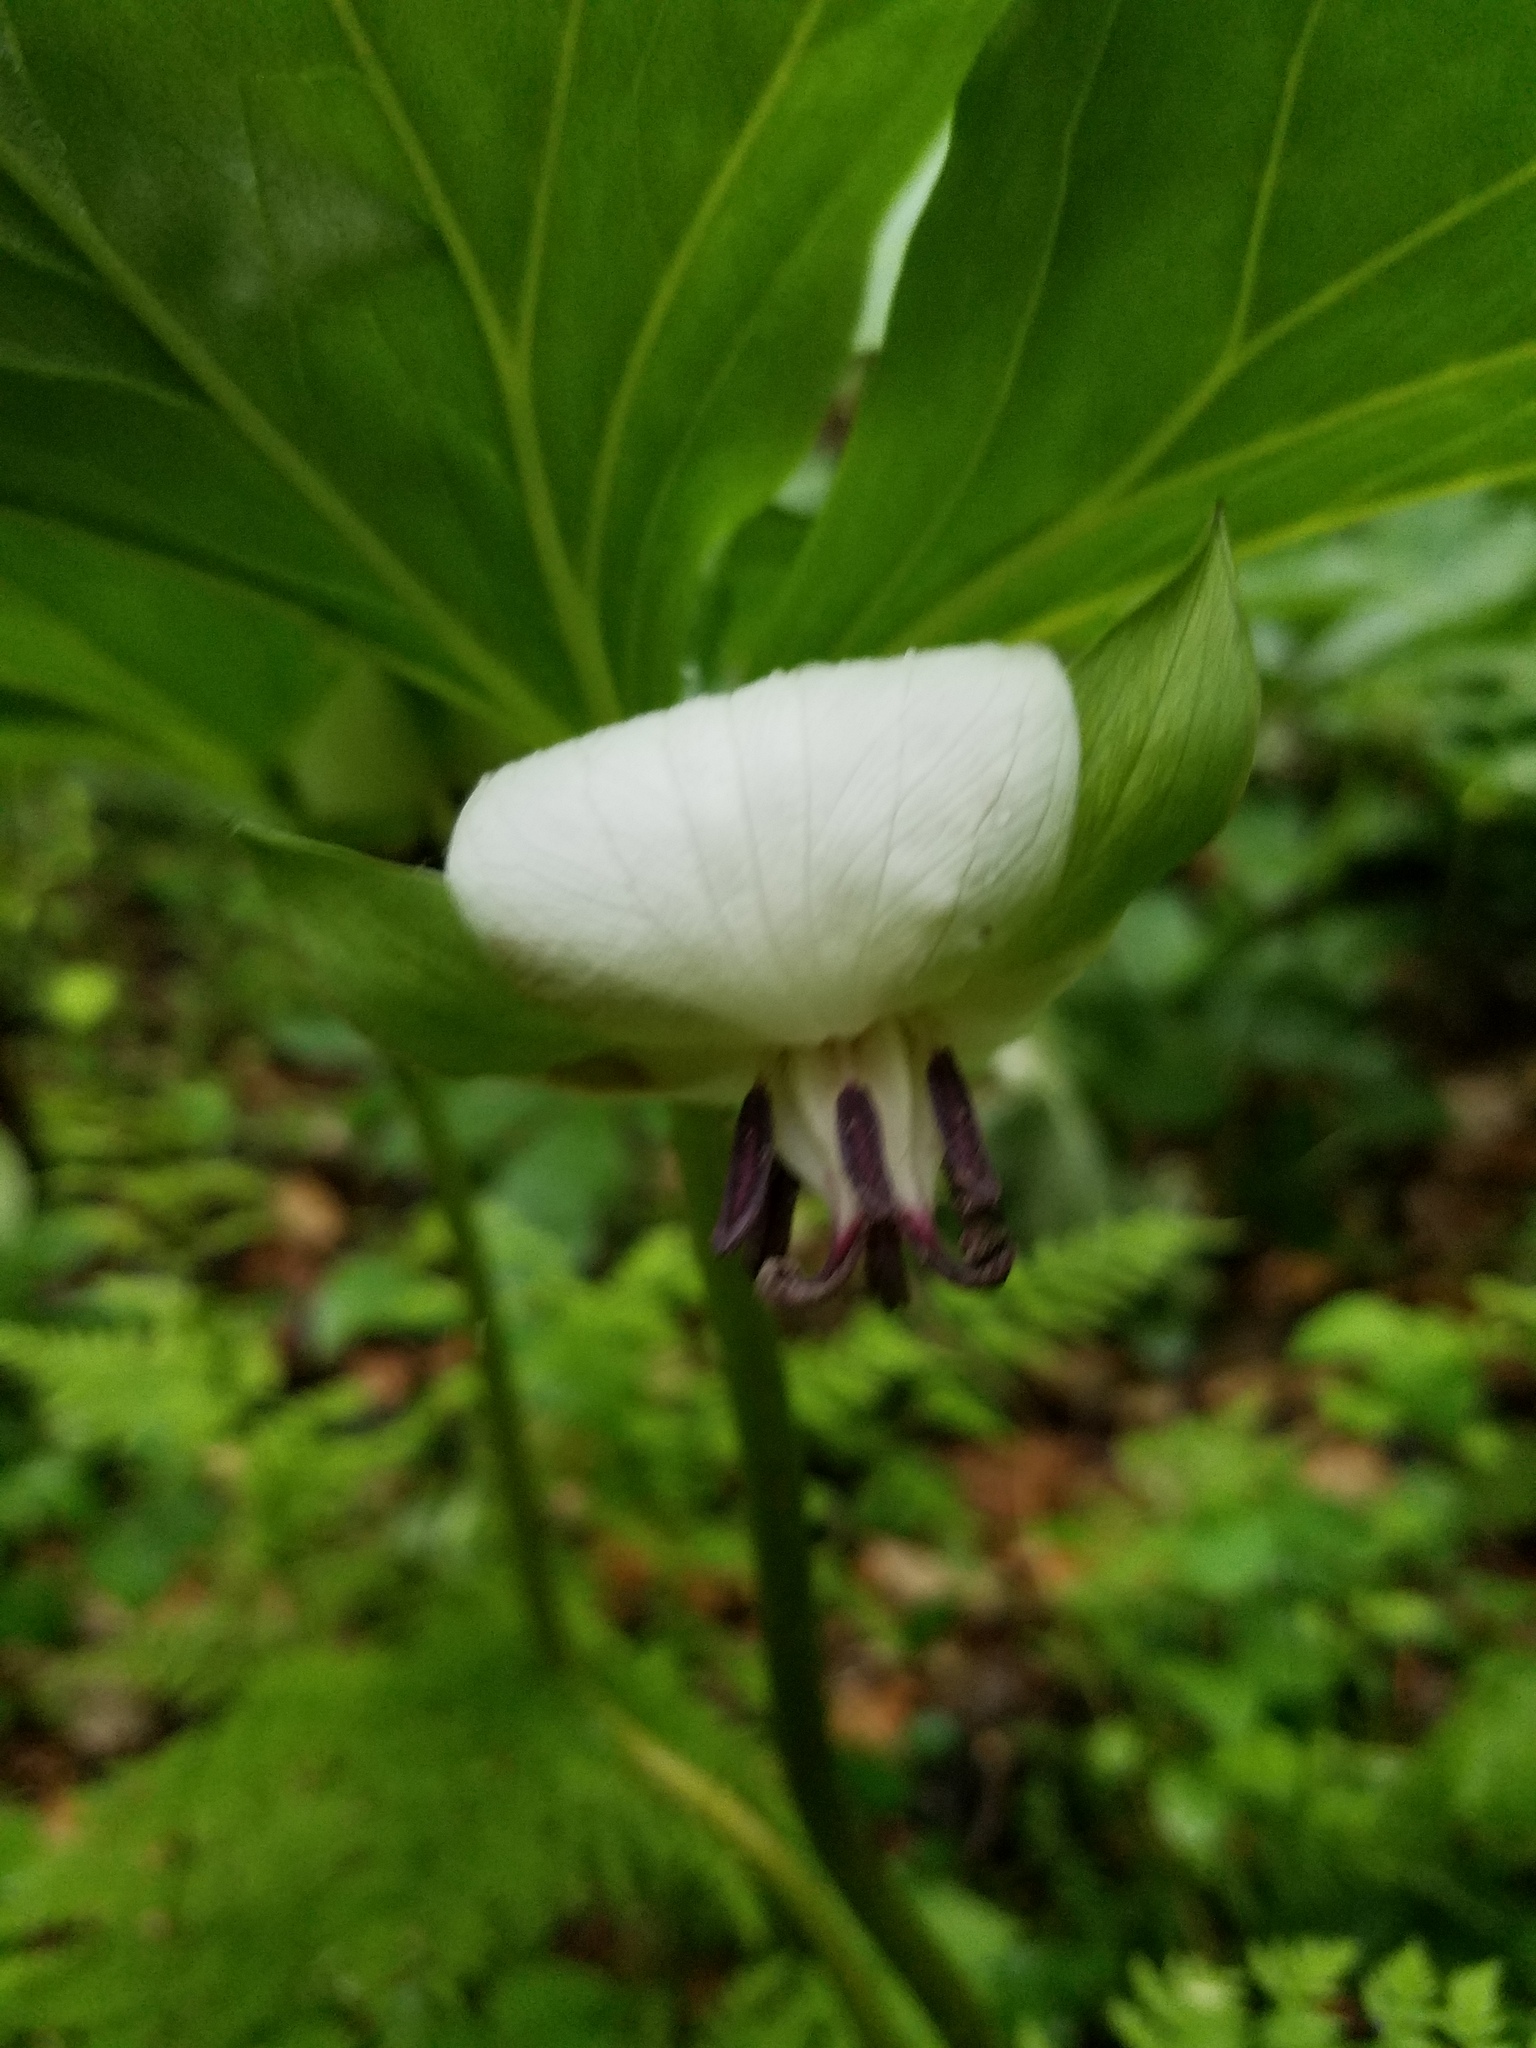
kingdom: Plantae
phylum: Tracheophyta
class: Liliopsida
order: Liliales
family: Melanthiaceae
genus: Trillium
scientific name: Trillium rugelii
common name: Ill-scented trillium
